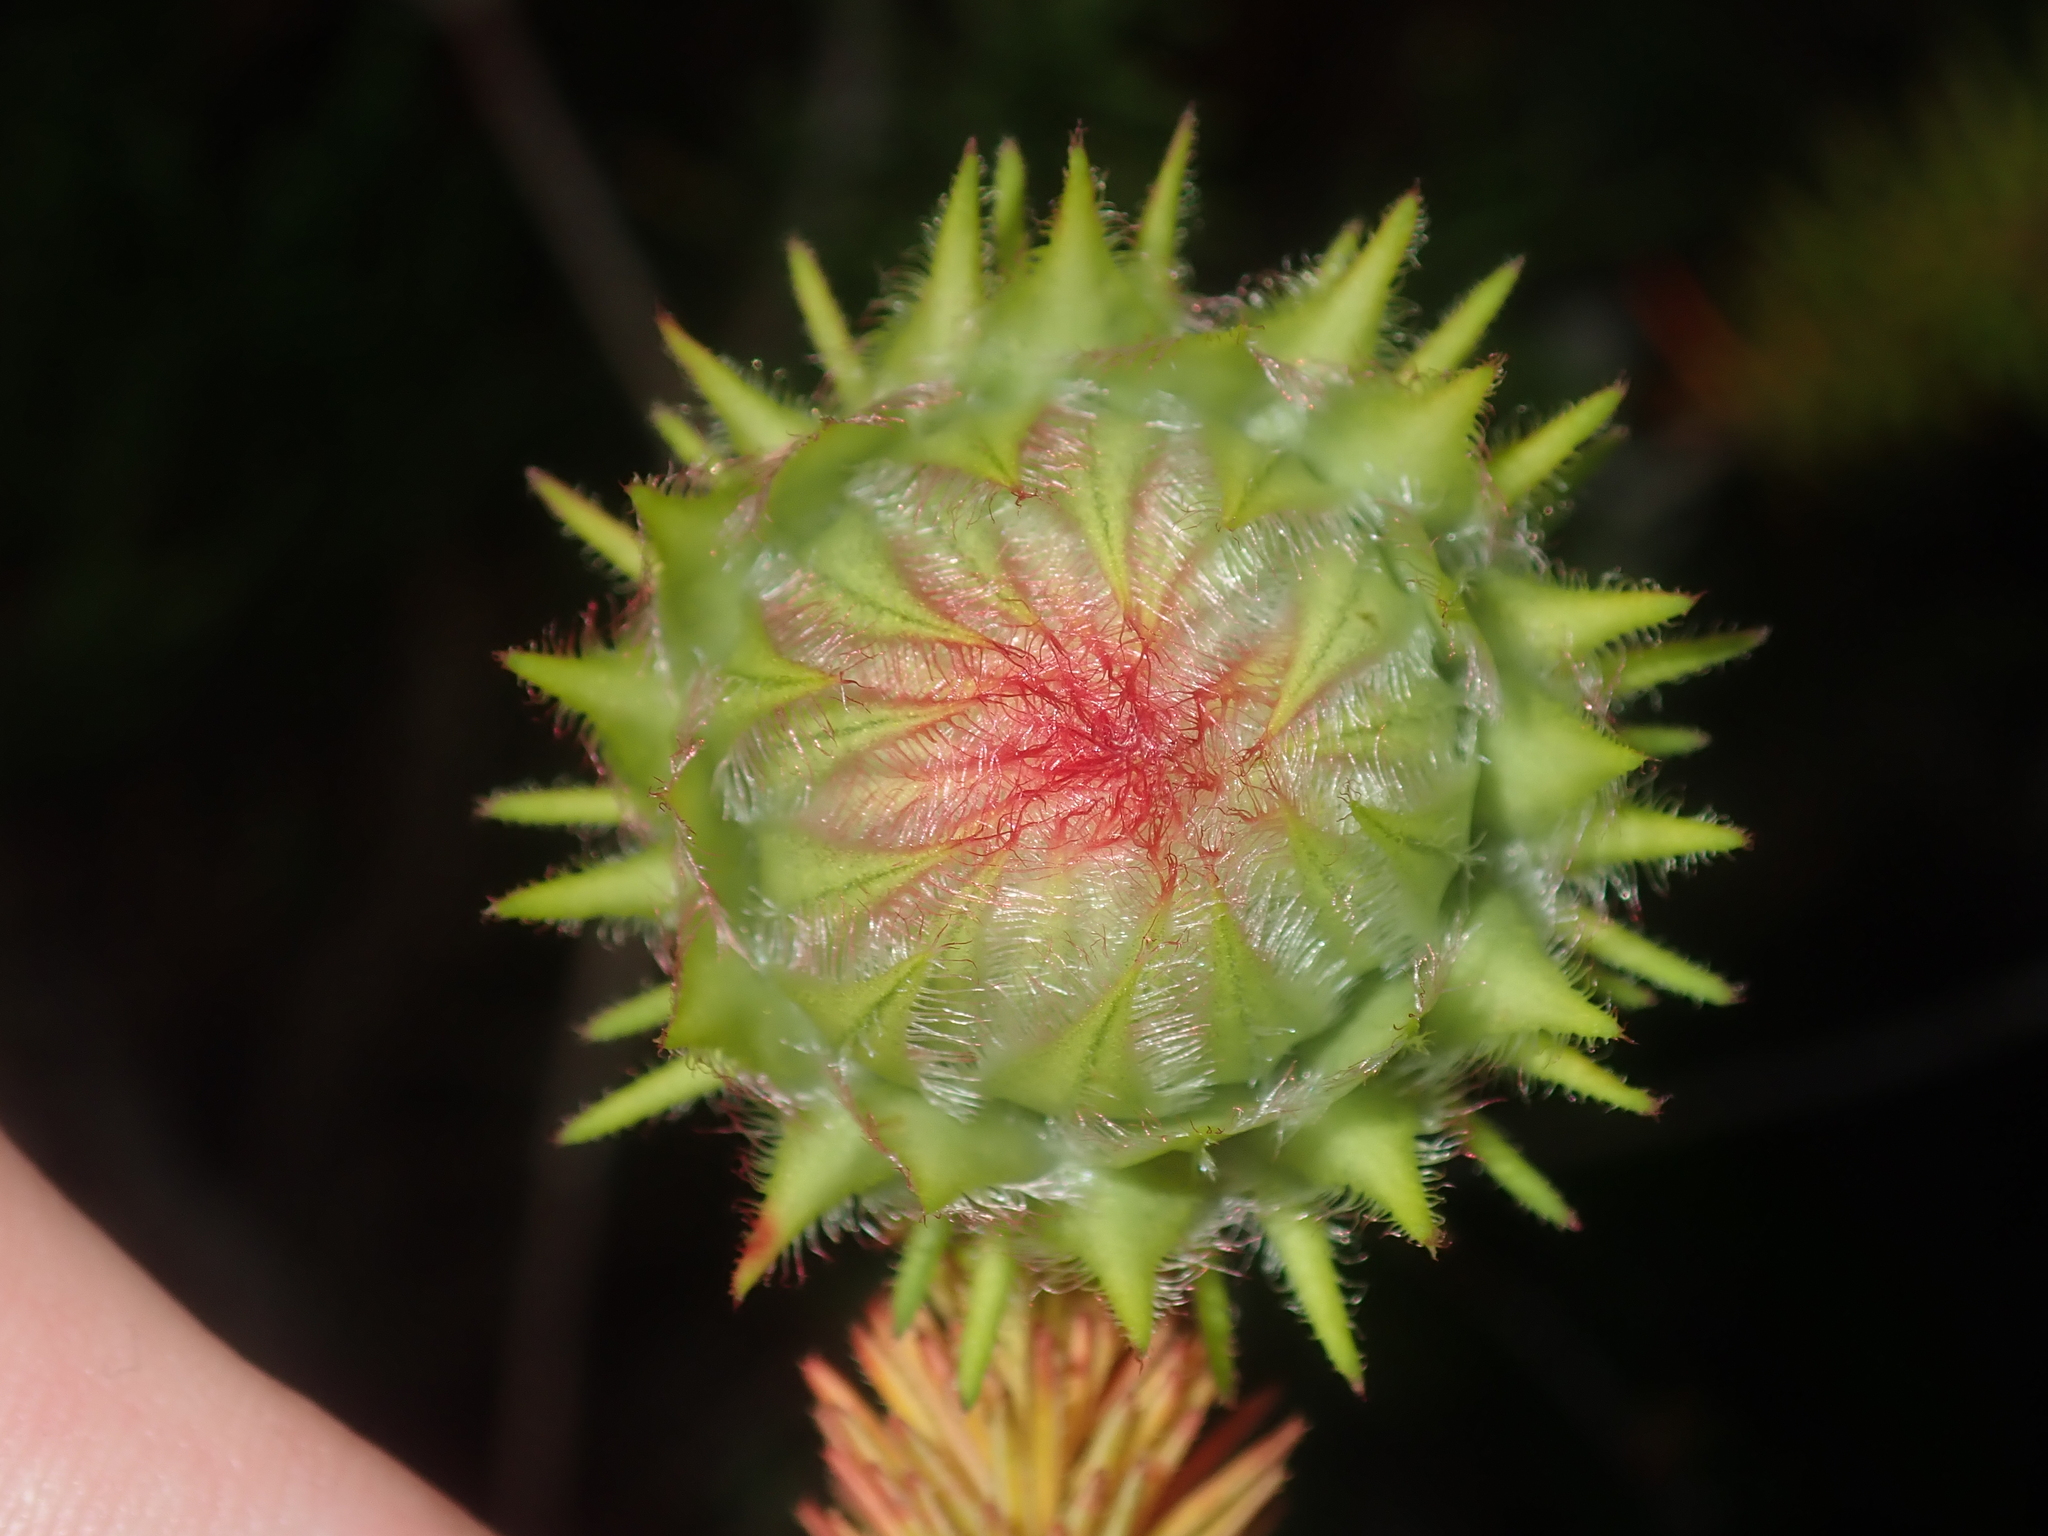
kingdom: Plantae
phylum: Tracheophyta
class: Magnoliopsida
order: Myrtales
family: Myrtaceae
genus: Darwinia
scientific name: Darwinia neildiana
